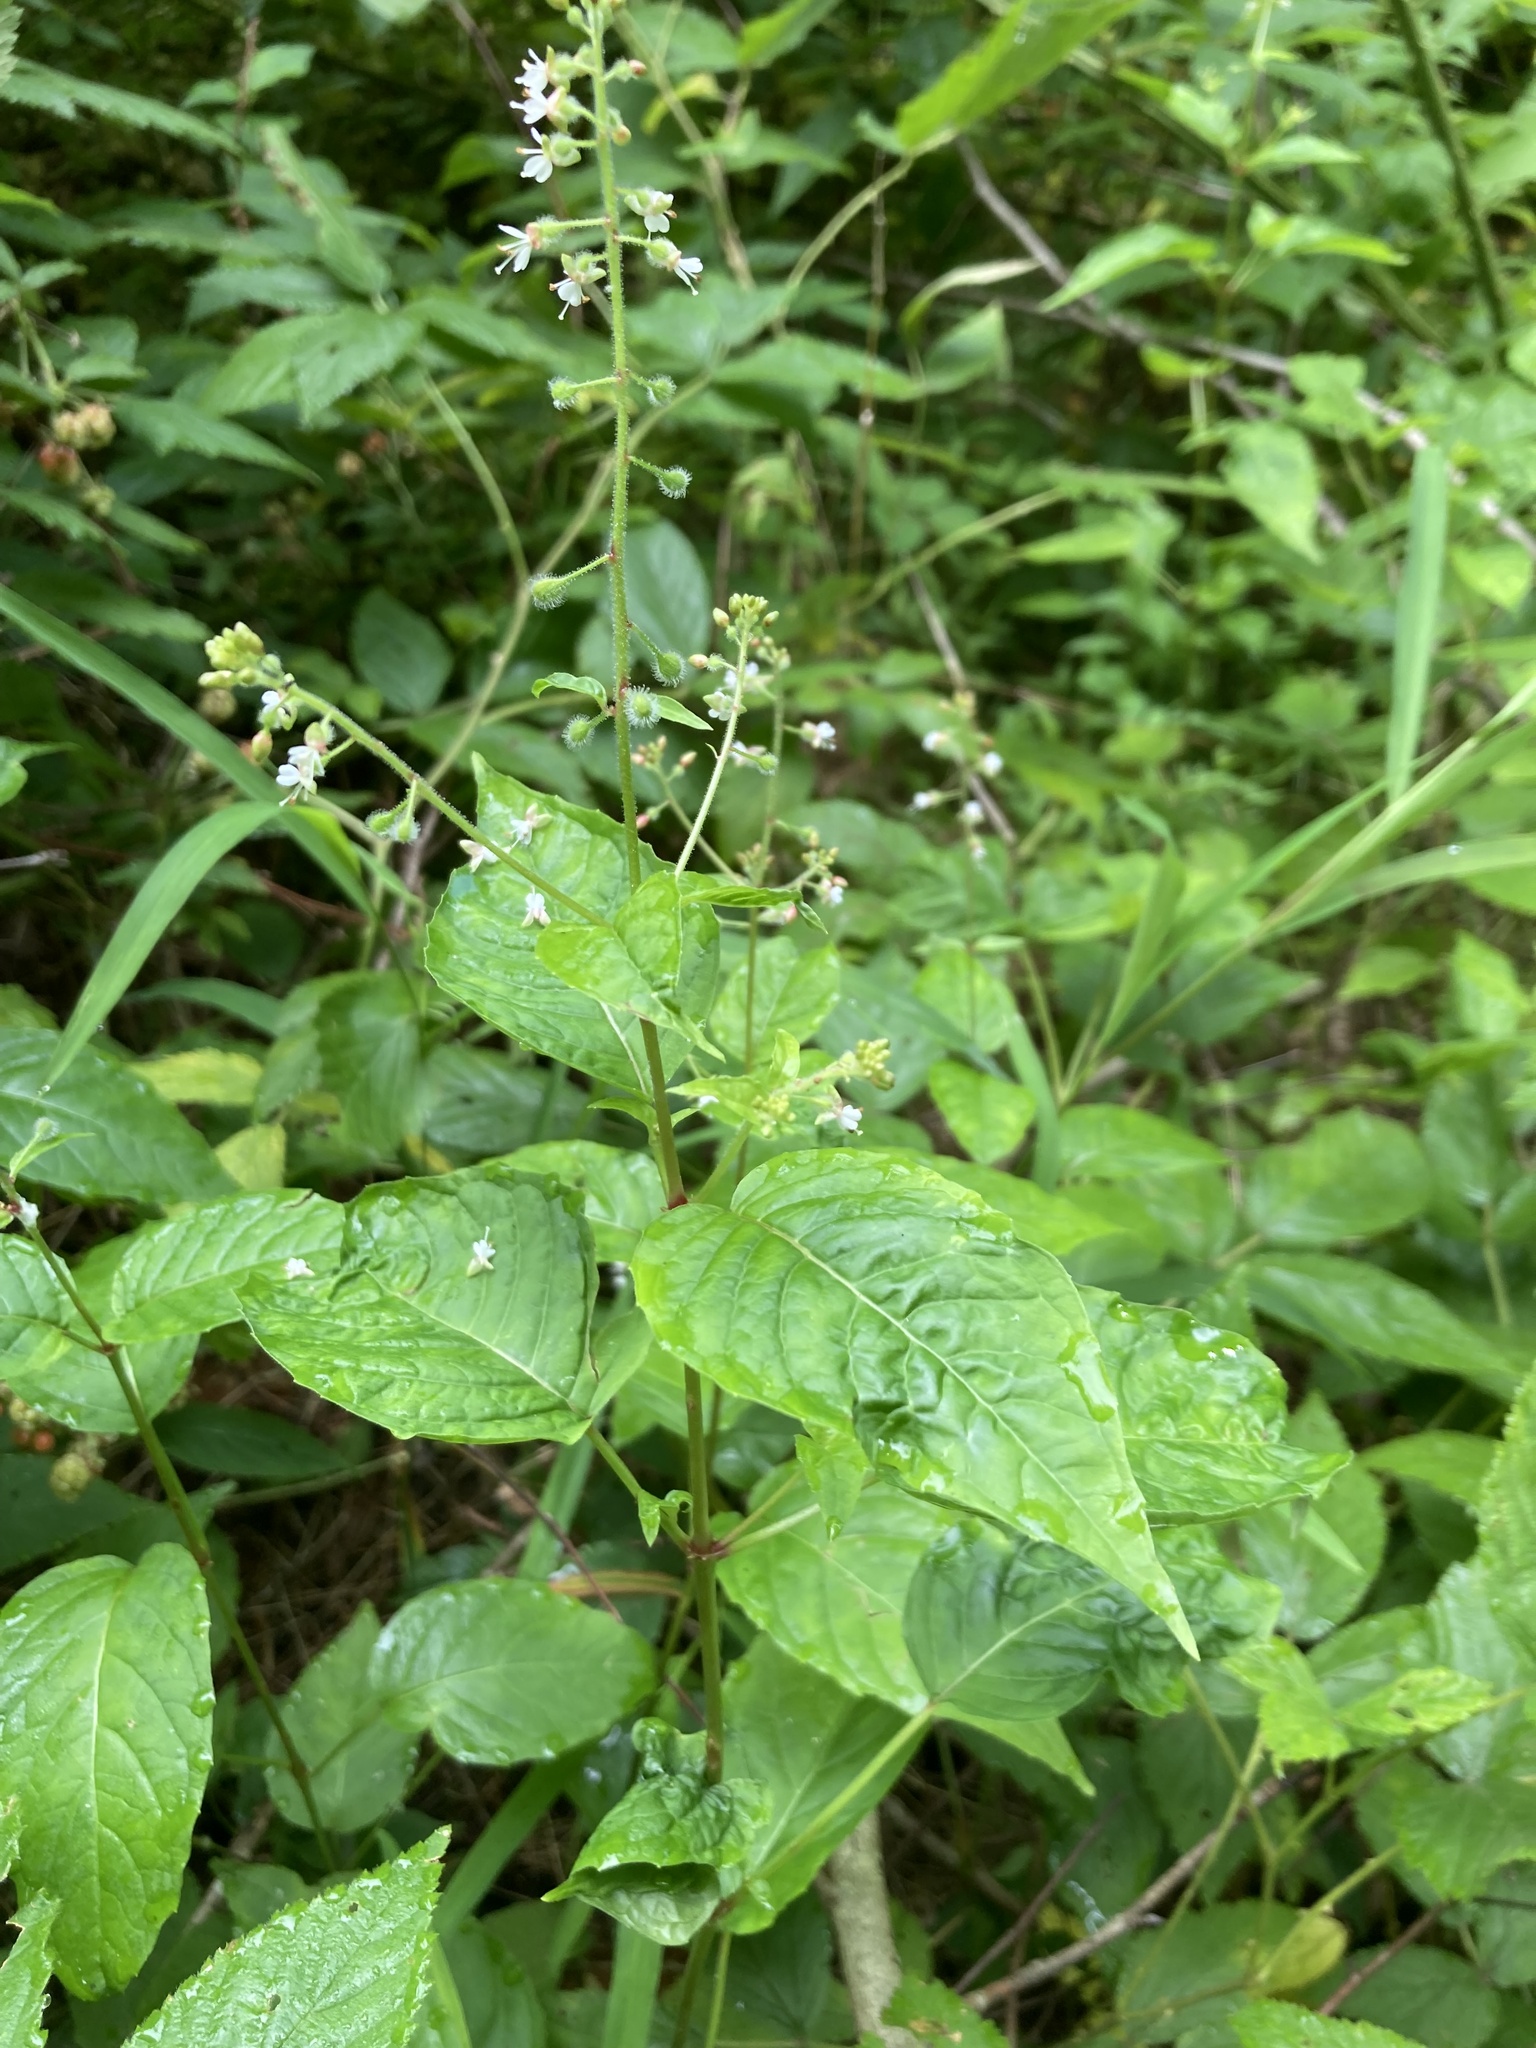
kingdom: Plantae
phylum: Tracheophyta
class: Magnoliopsida
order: Myrtales
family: Onagraceae
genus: Circaea
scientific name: Circaea canadensis
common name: Broad-leaved enchanter's nightshade
